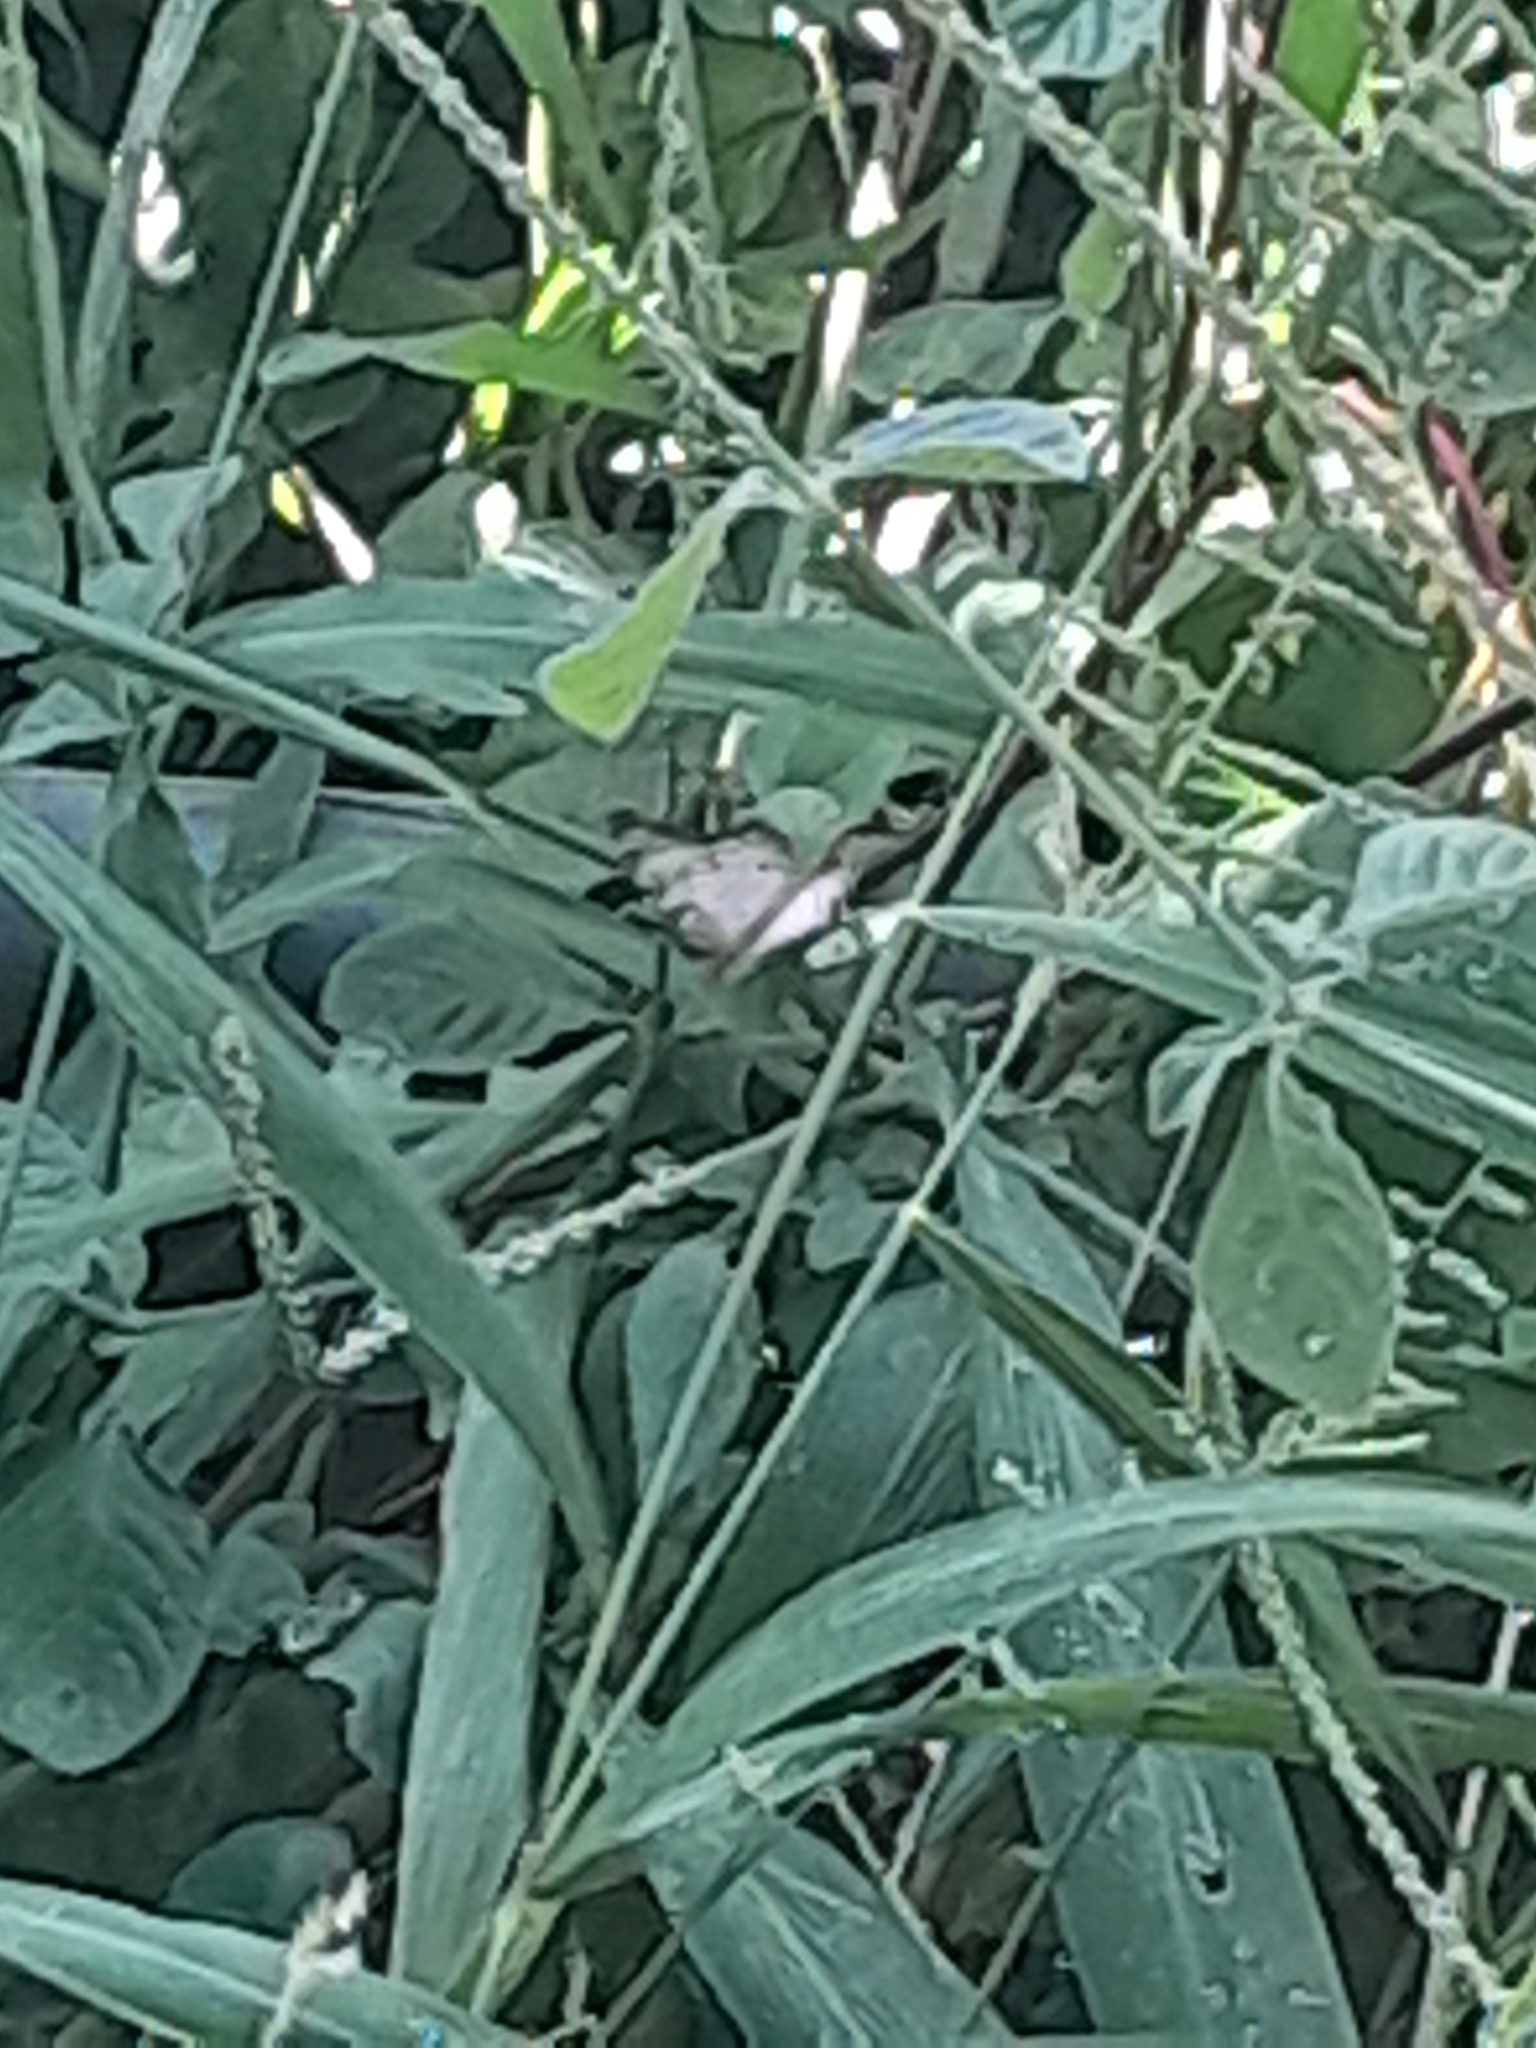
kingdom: Animalia
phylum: Arthropoda
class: Insecta
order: Lepidoptera
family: Nymphalidae
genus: Anartia
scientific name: Anartia jatrophae
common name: White peacock
